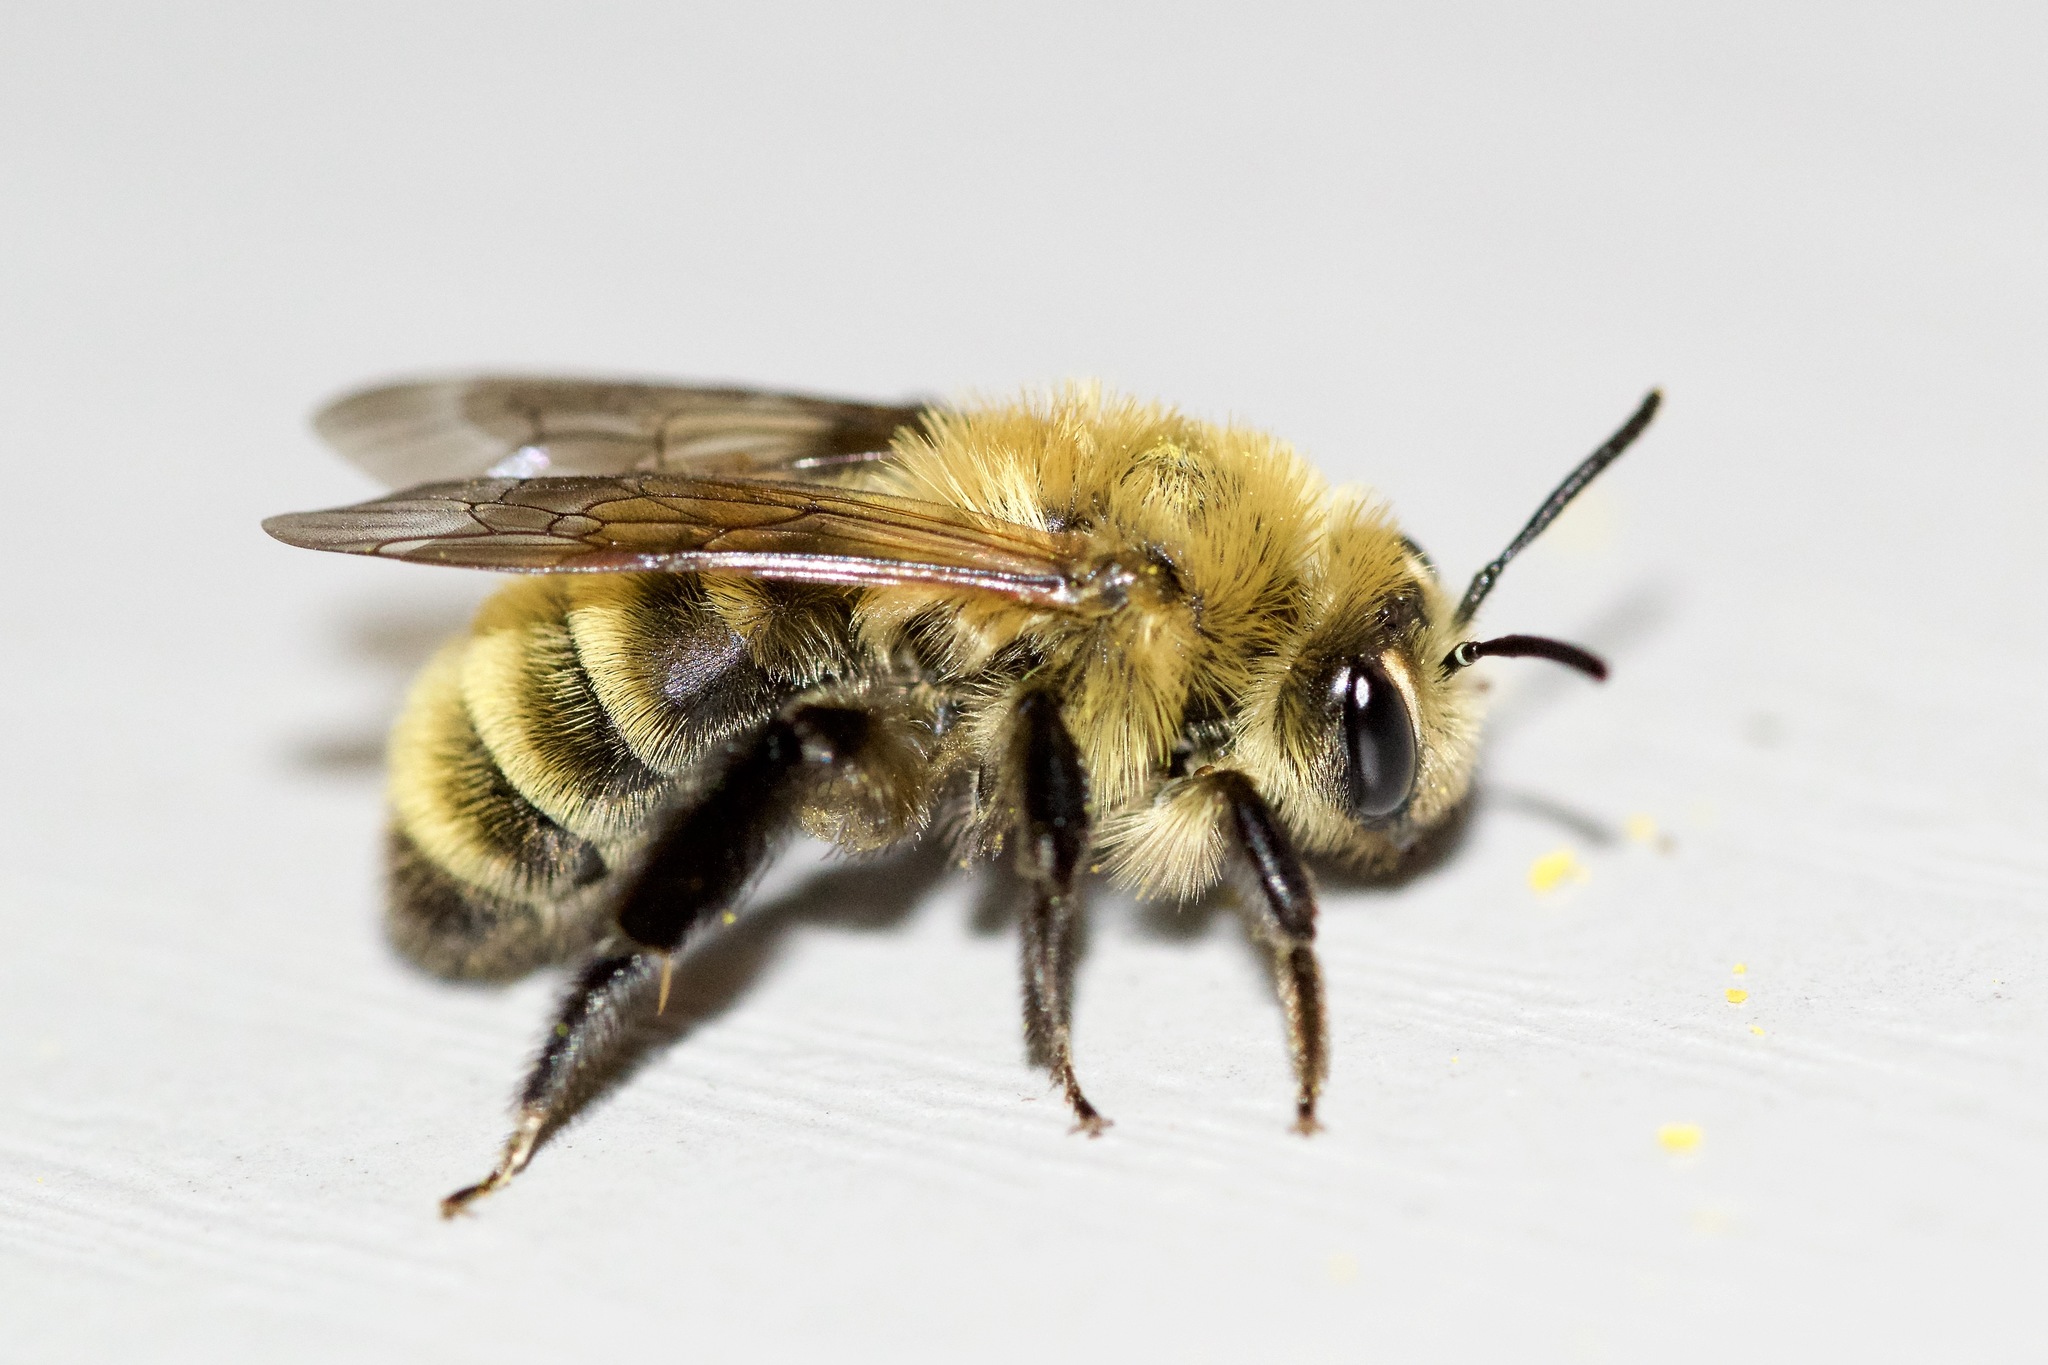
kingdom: Animalia
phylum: Arthropoda
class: Insecta
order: Hymenoptera
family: Andrenidae
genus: Andrena
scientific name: Andrena hirticincta
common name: Hairy-banded mining bee
